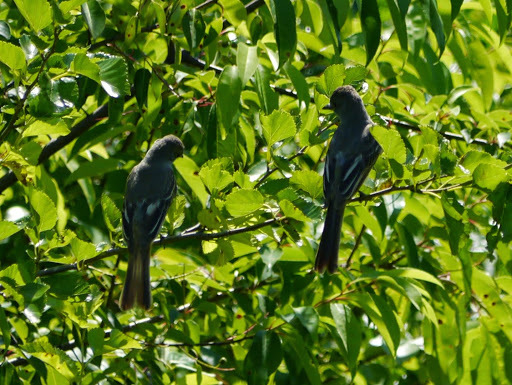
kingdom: Animalia
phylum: Chordata
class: Aves
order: Passeriformes
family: Tyrannidae
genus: Myiarchus
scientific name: Myiarchus crinitus
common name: Great crested flycatcher
